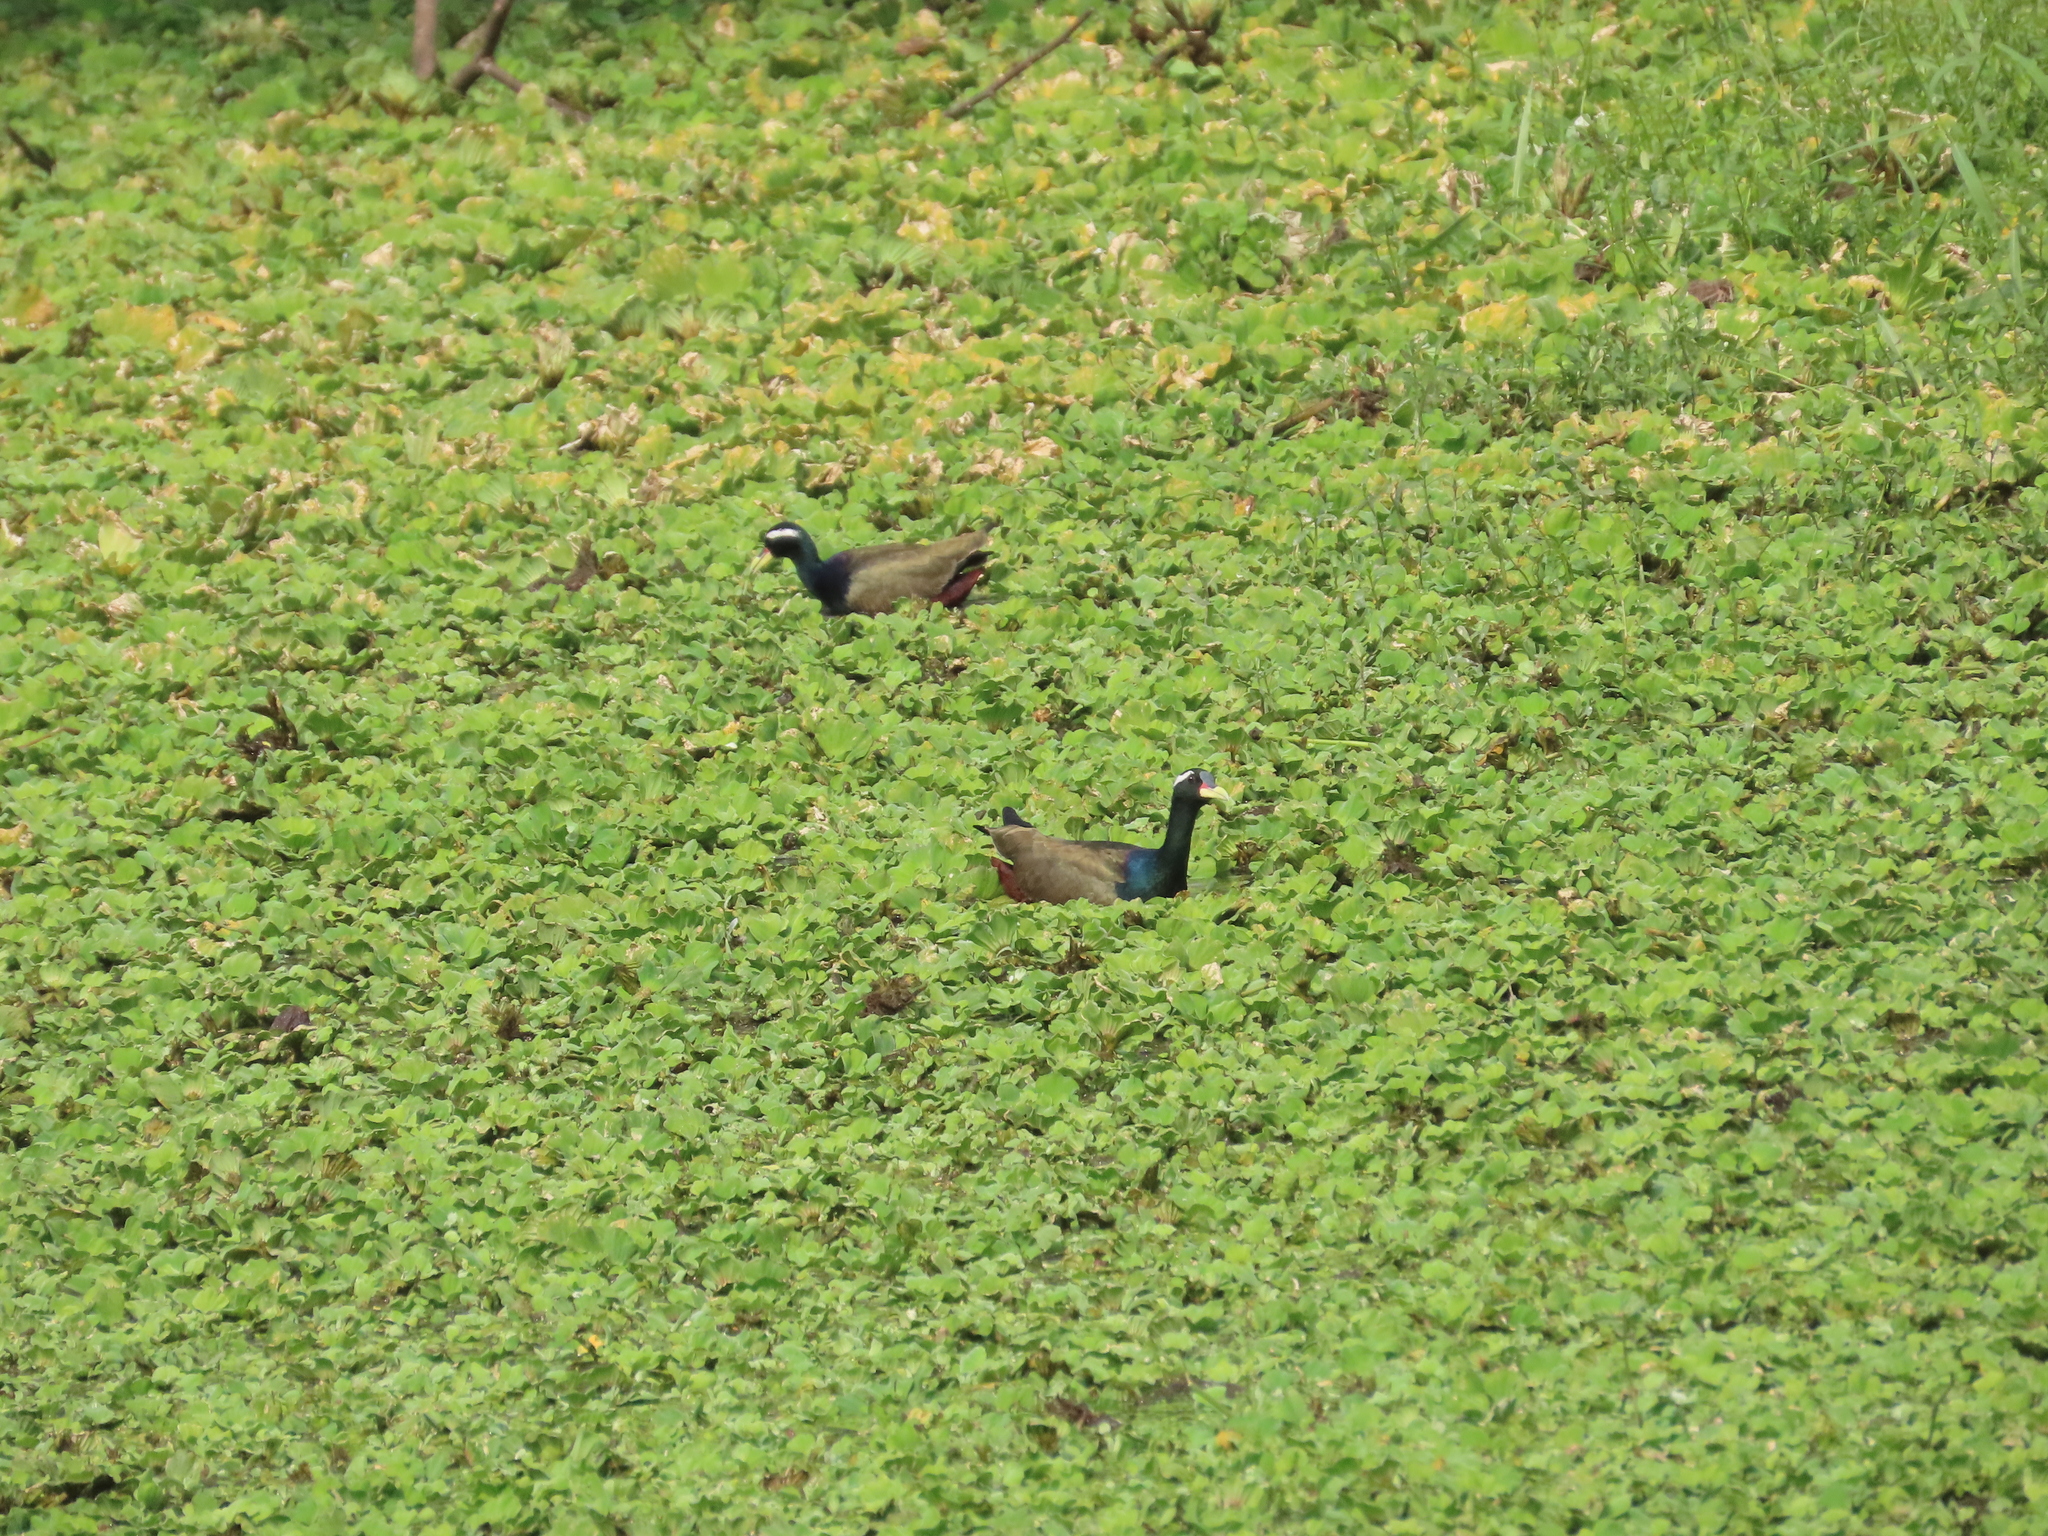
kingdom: Animalia
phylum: Chordata
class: Aves
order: Charadriiformes
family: Jacanidae
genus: Metopidius
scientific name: Metopidius indicus
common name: Bronze-winged jacana
